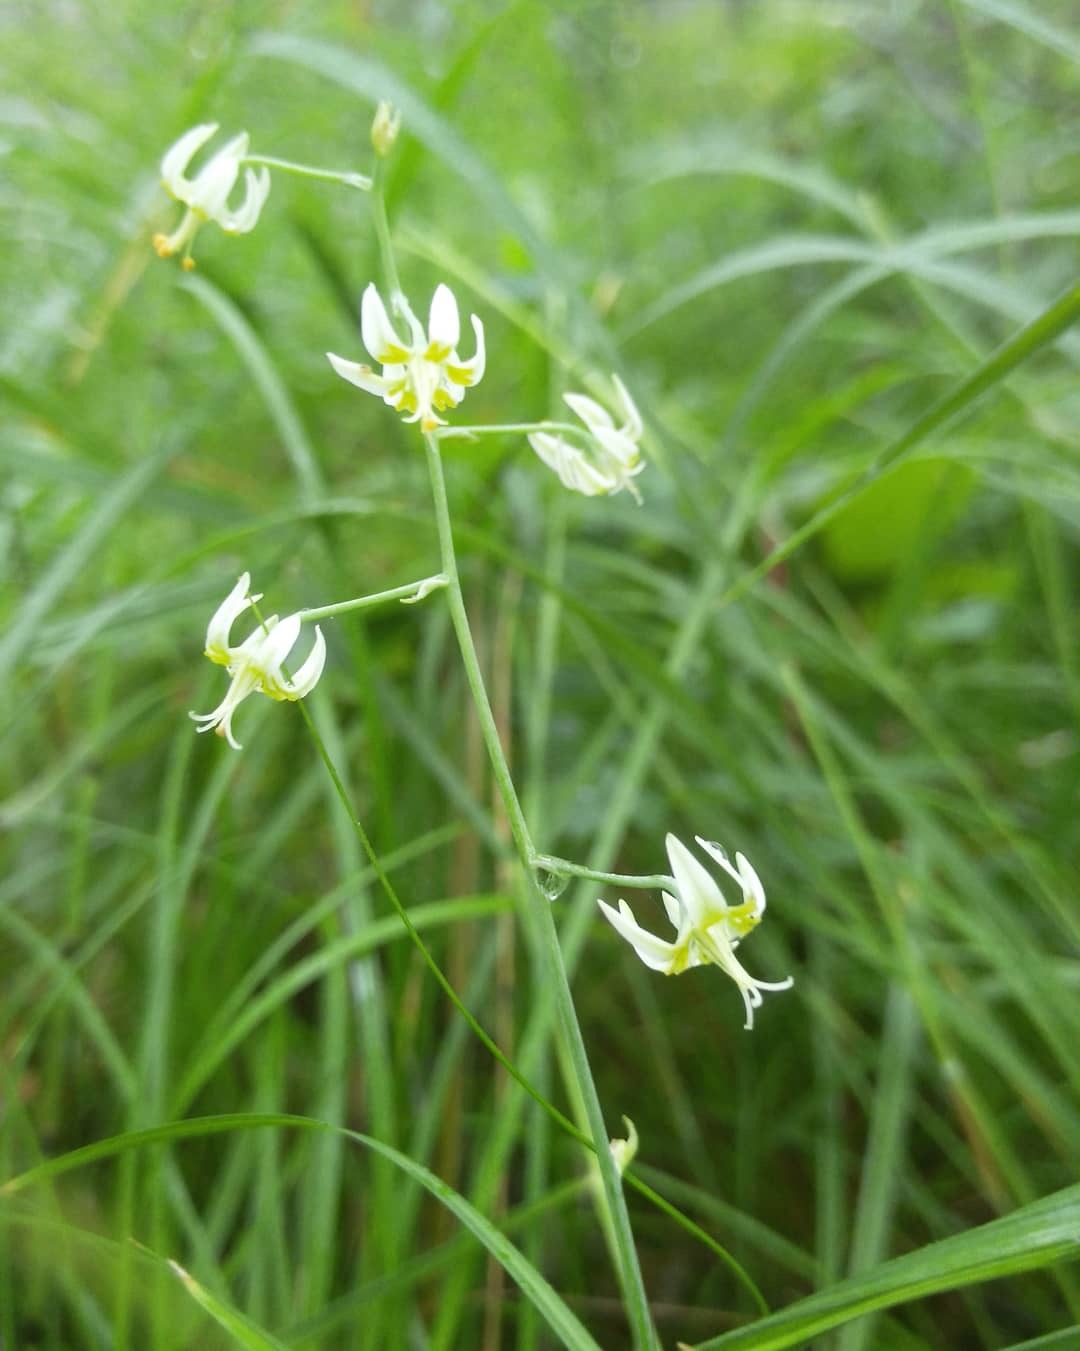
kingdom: Plantae
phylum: Tracheophyta
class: Liliopsida
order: Liliales
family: Melanthiaceae
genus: Anticlea
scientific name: Anticlea sibirica
